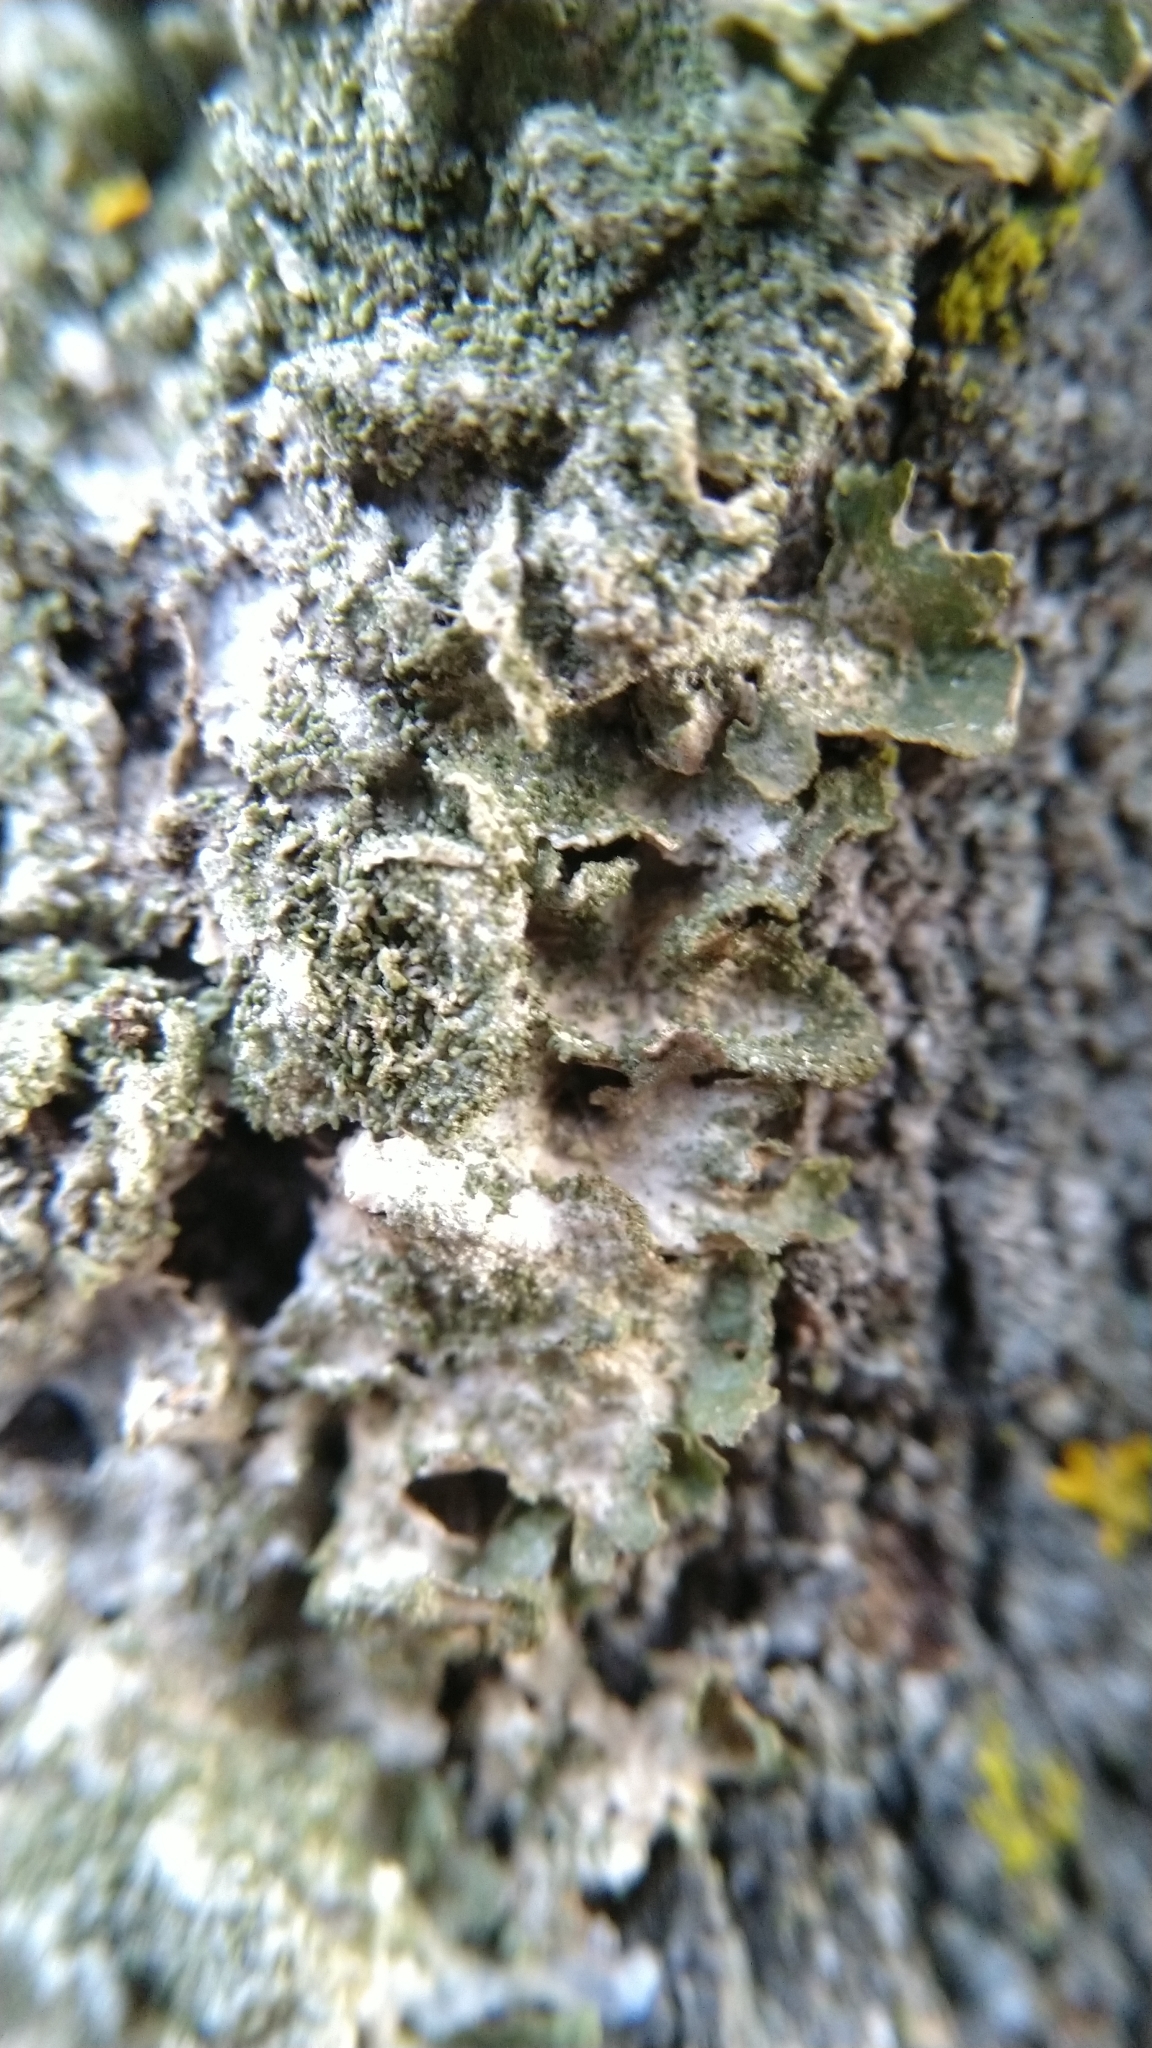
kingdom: Fungi
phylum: Ascomycota
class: Lecanoromycetes
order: Lecanorales
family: Parmeliaceae
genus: Melanohalea
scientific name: Melanohalea exasperatula
